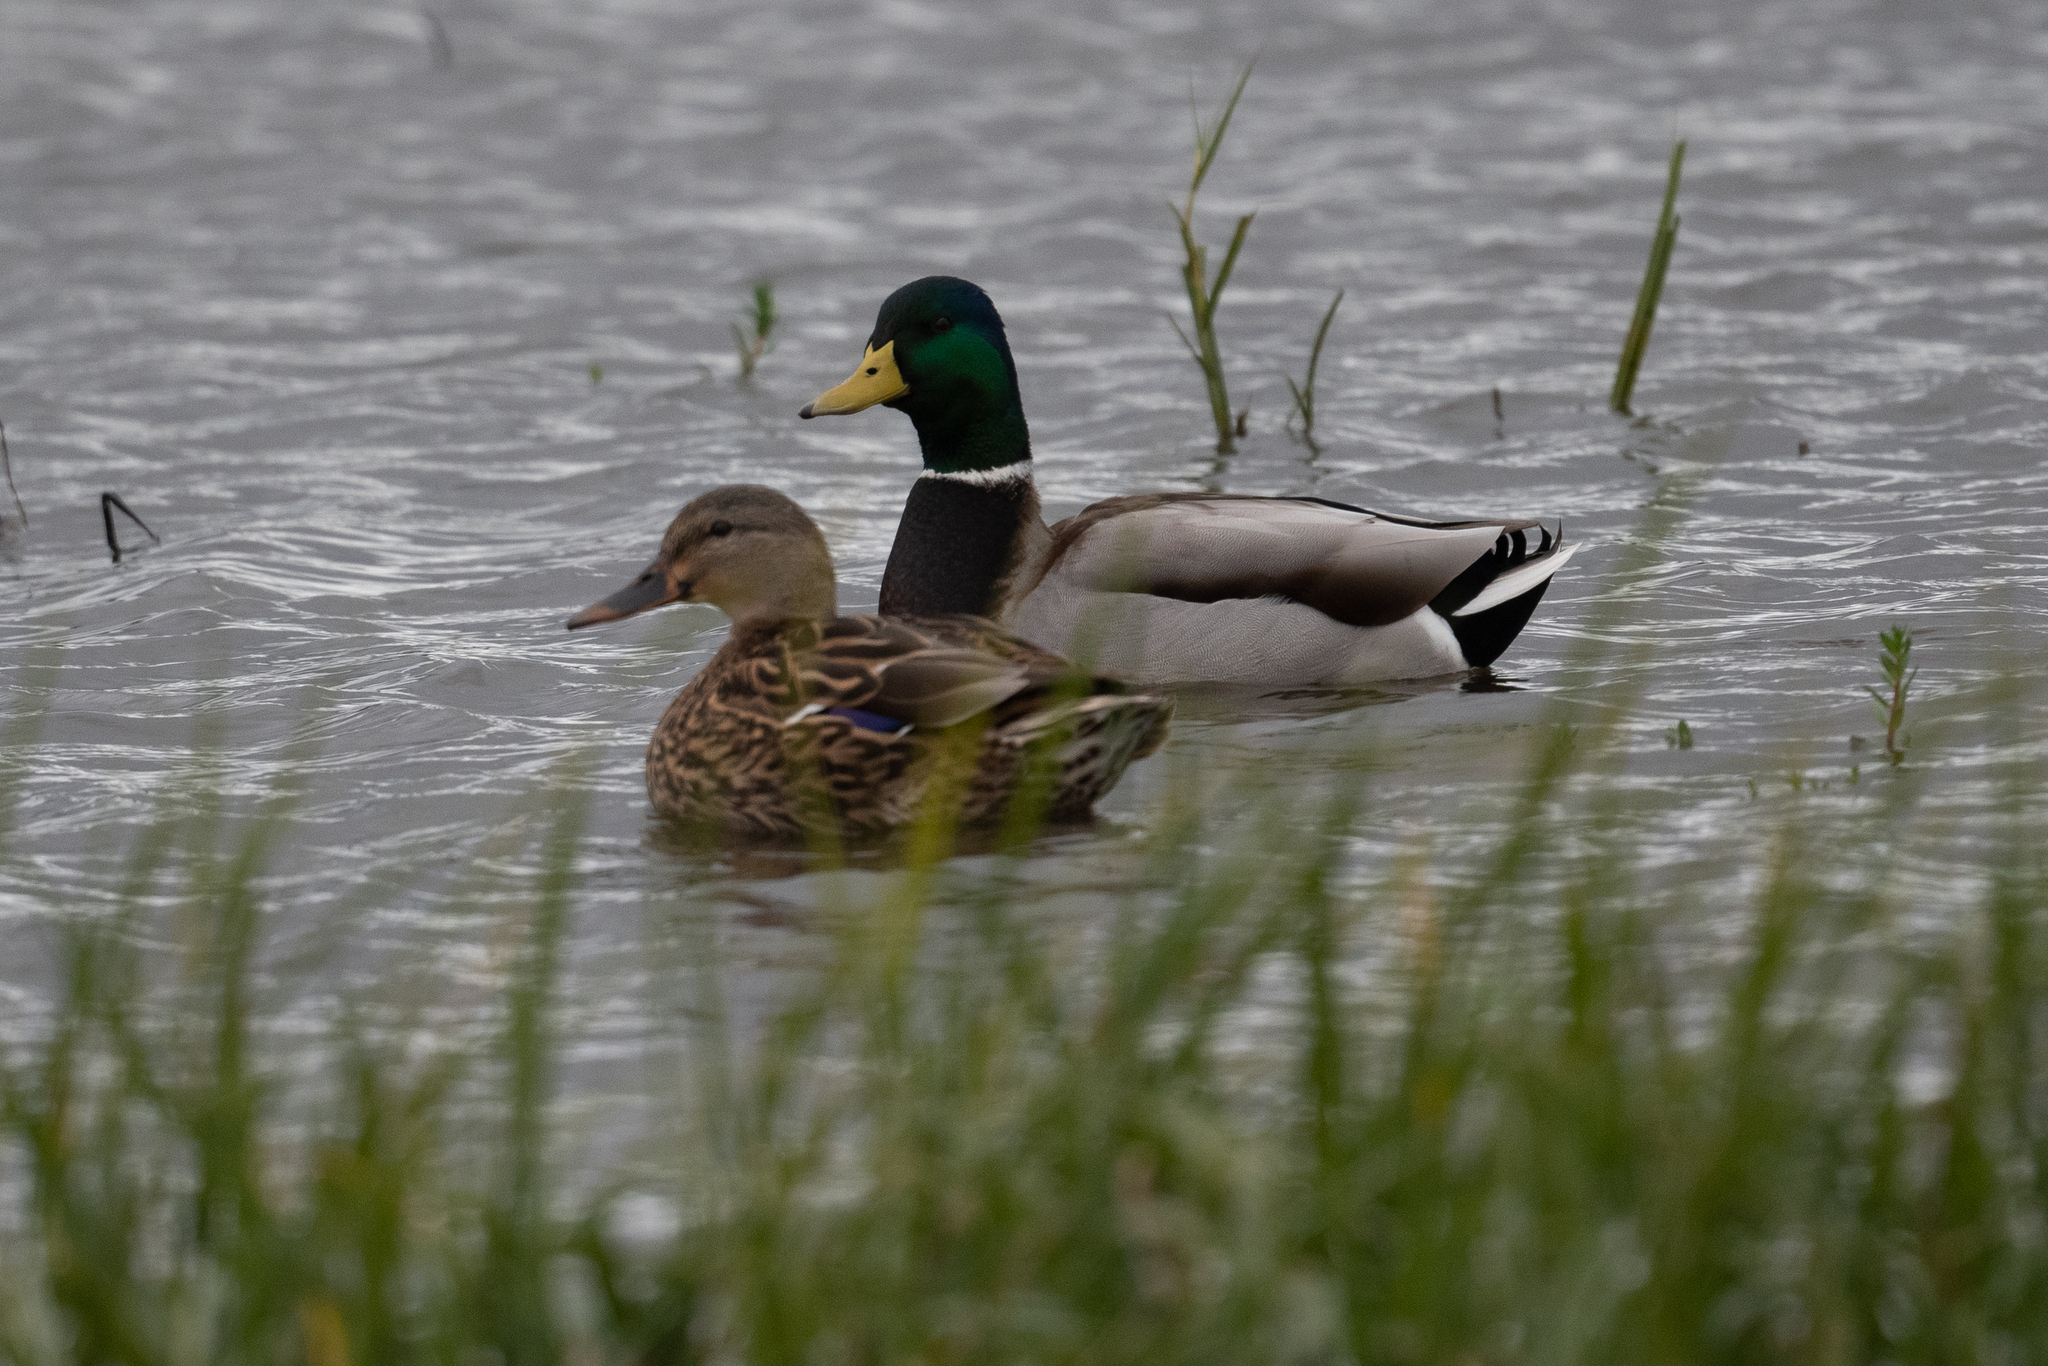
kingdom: Animalia
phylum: Chordata
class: Aves
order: Anseriformes
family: Anatidae
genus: Anas
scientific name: Anas platyrhynchos
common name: Mallard
